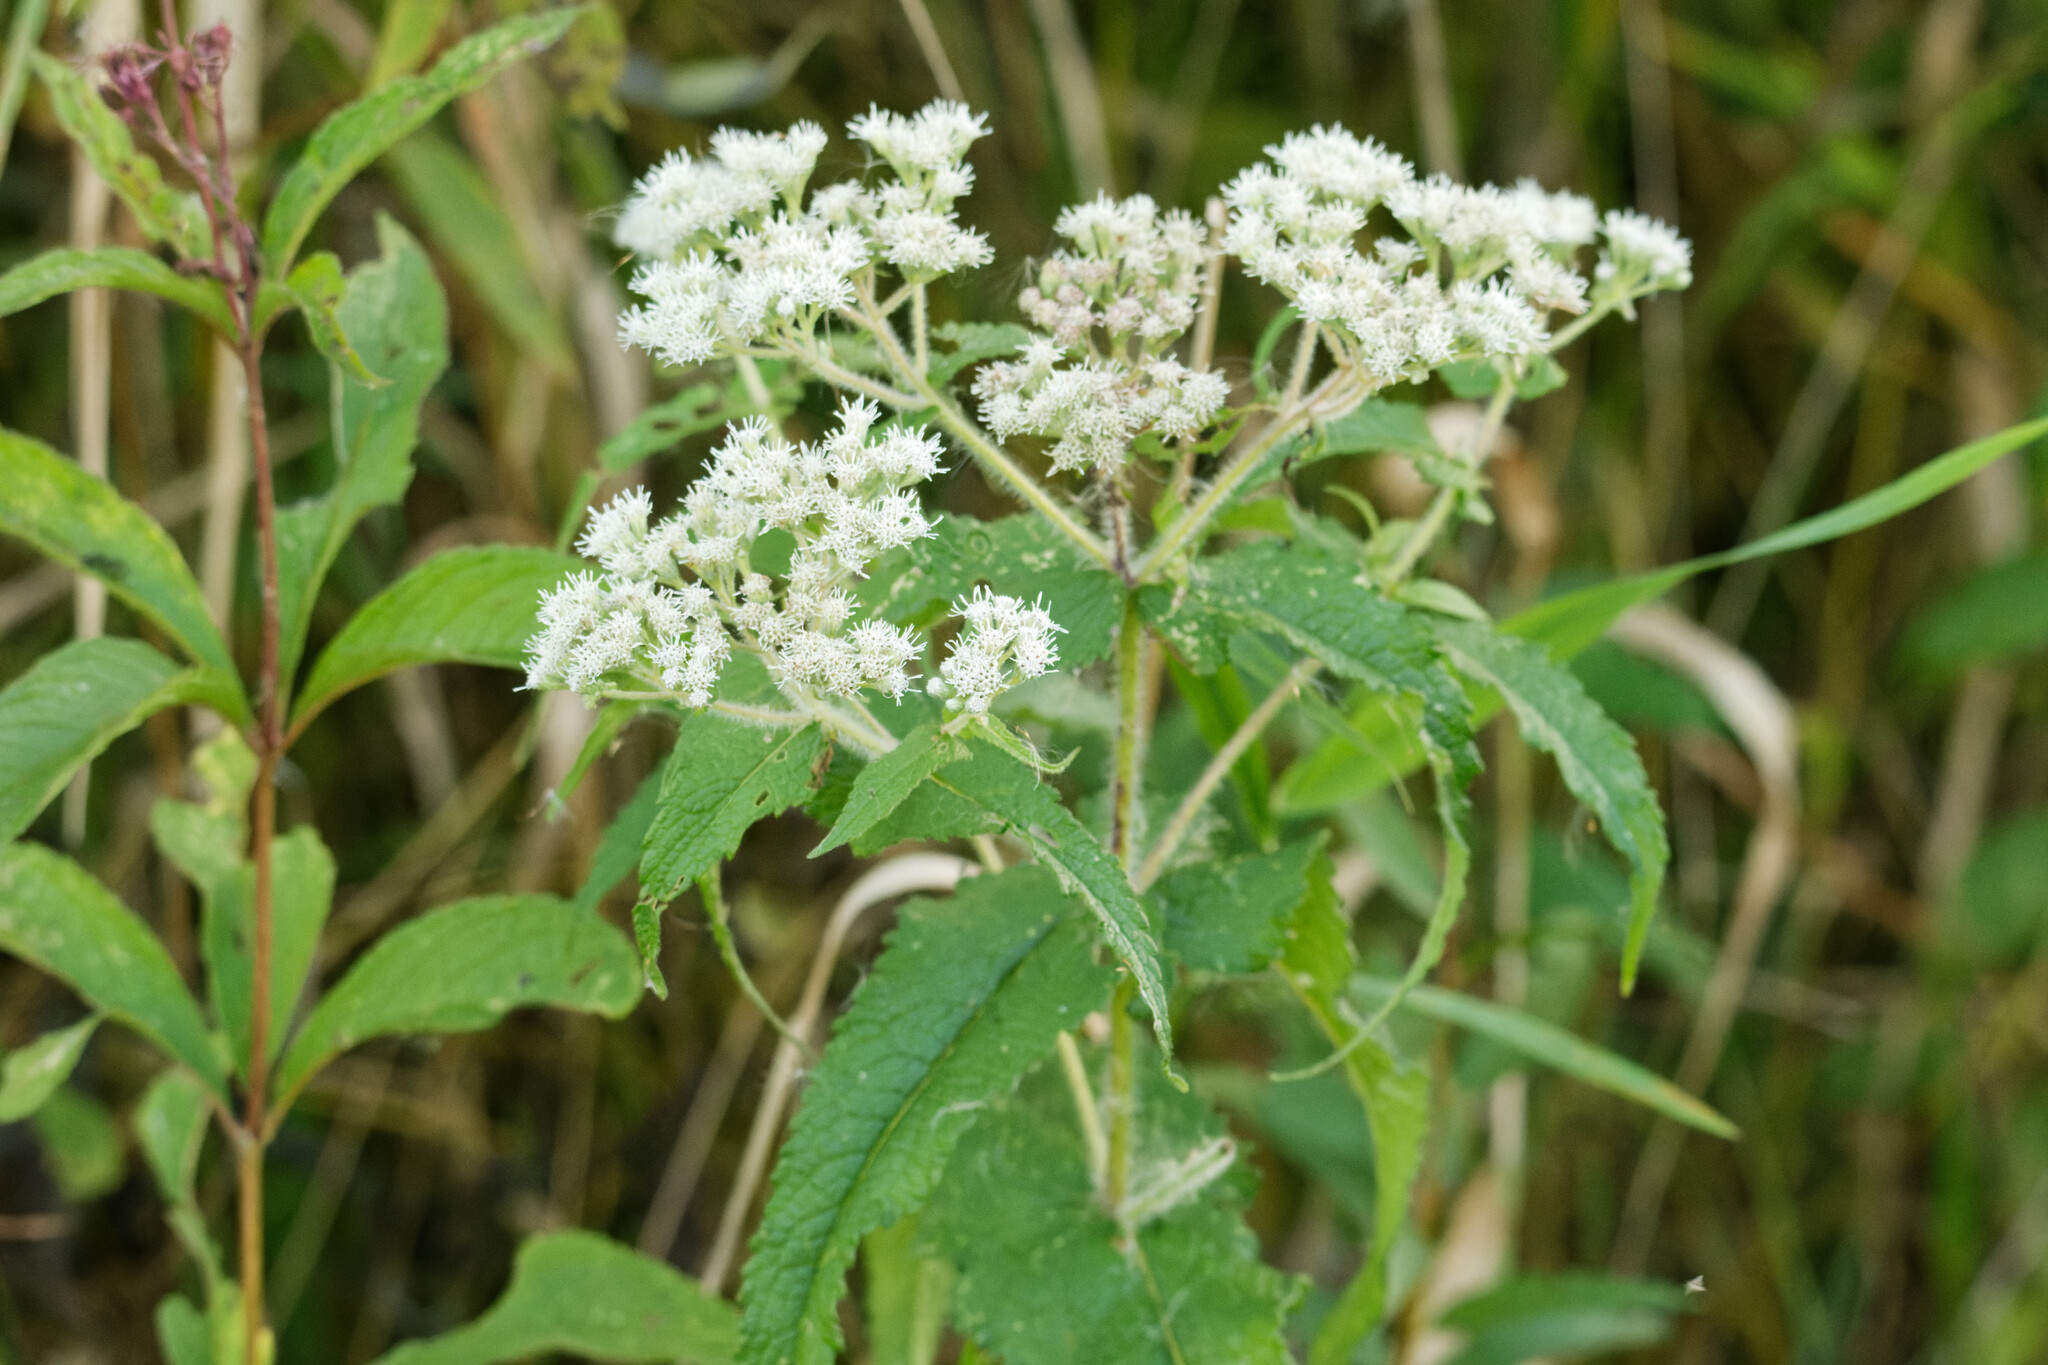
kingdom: Plantae
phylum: Tracheophyta
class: Magnoliopsida
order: Asterales
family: Asteraceae
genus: Eupatorium
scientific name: Eupatorium perfoliatum
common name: Boneset
